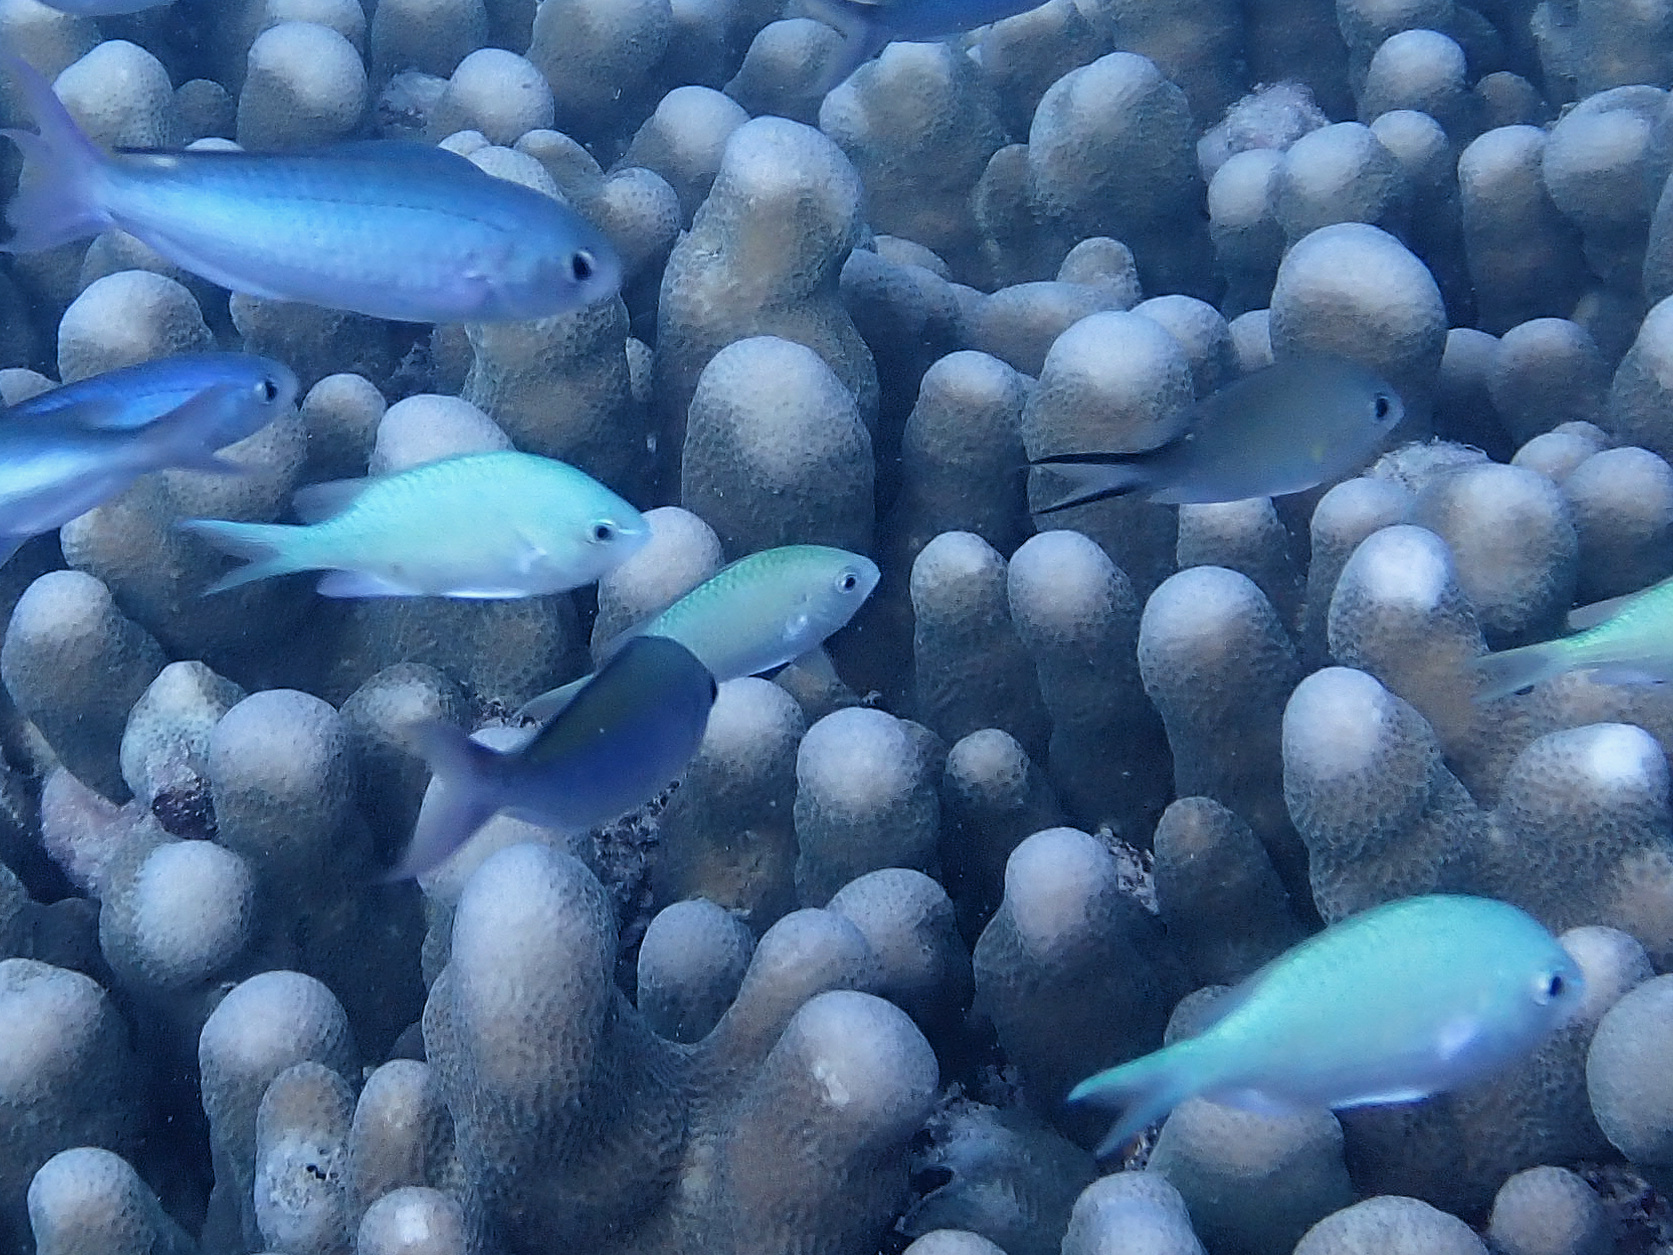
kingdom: Animalia
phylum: Chordata
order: Perciformes
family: Pomacentridae
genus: Chromis
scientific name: Chromis viridis
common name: Blue-green chromis
